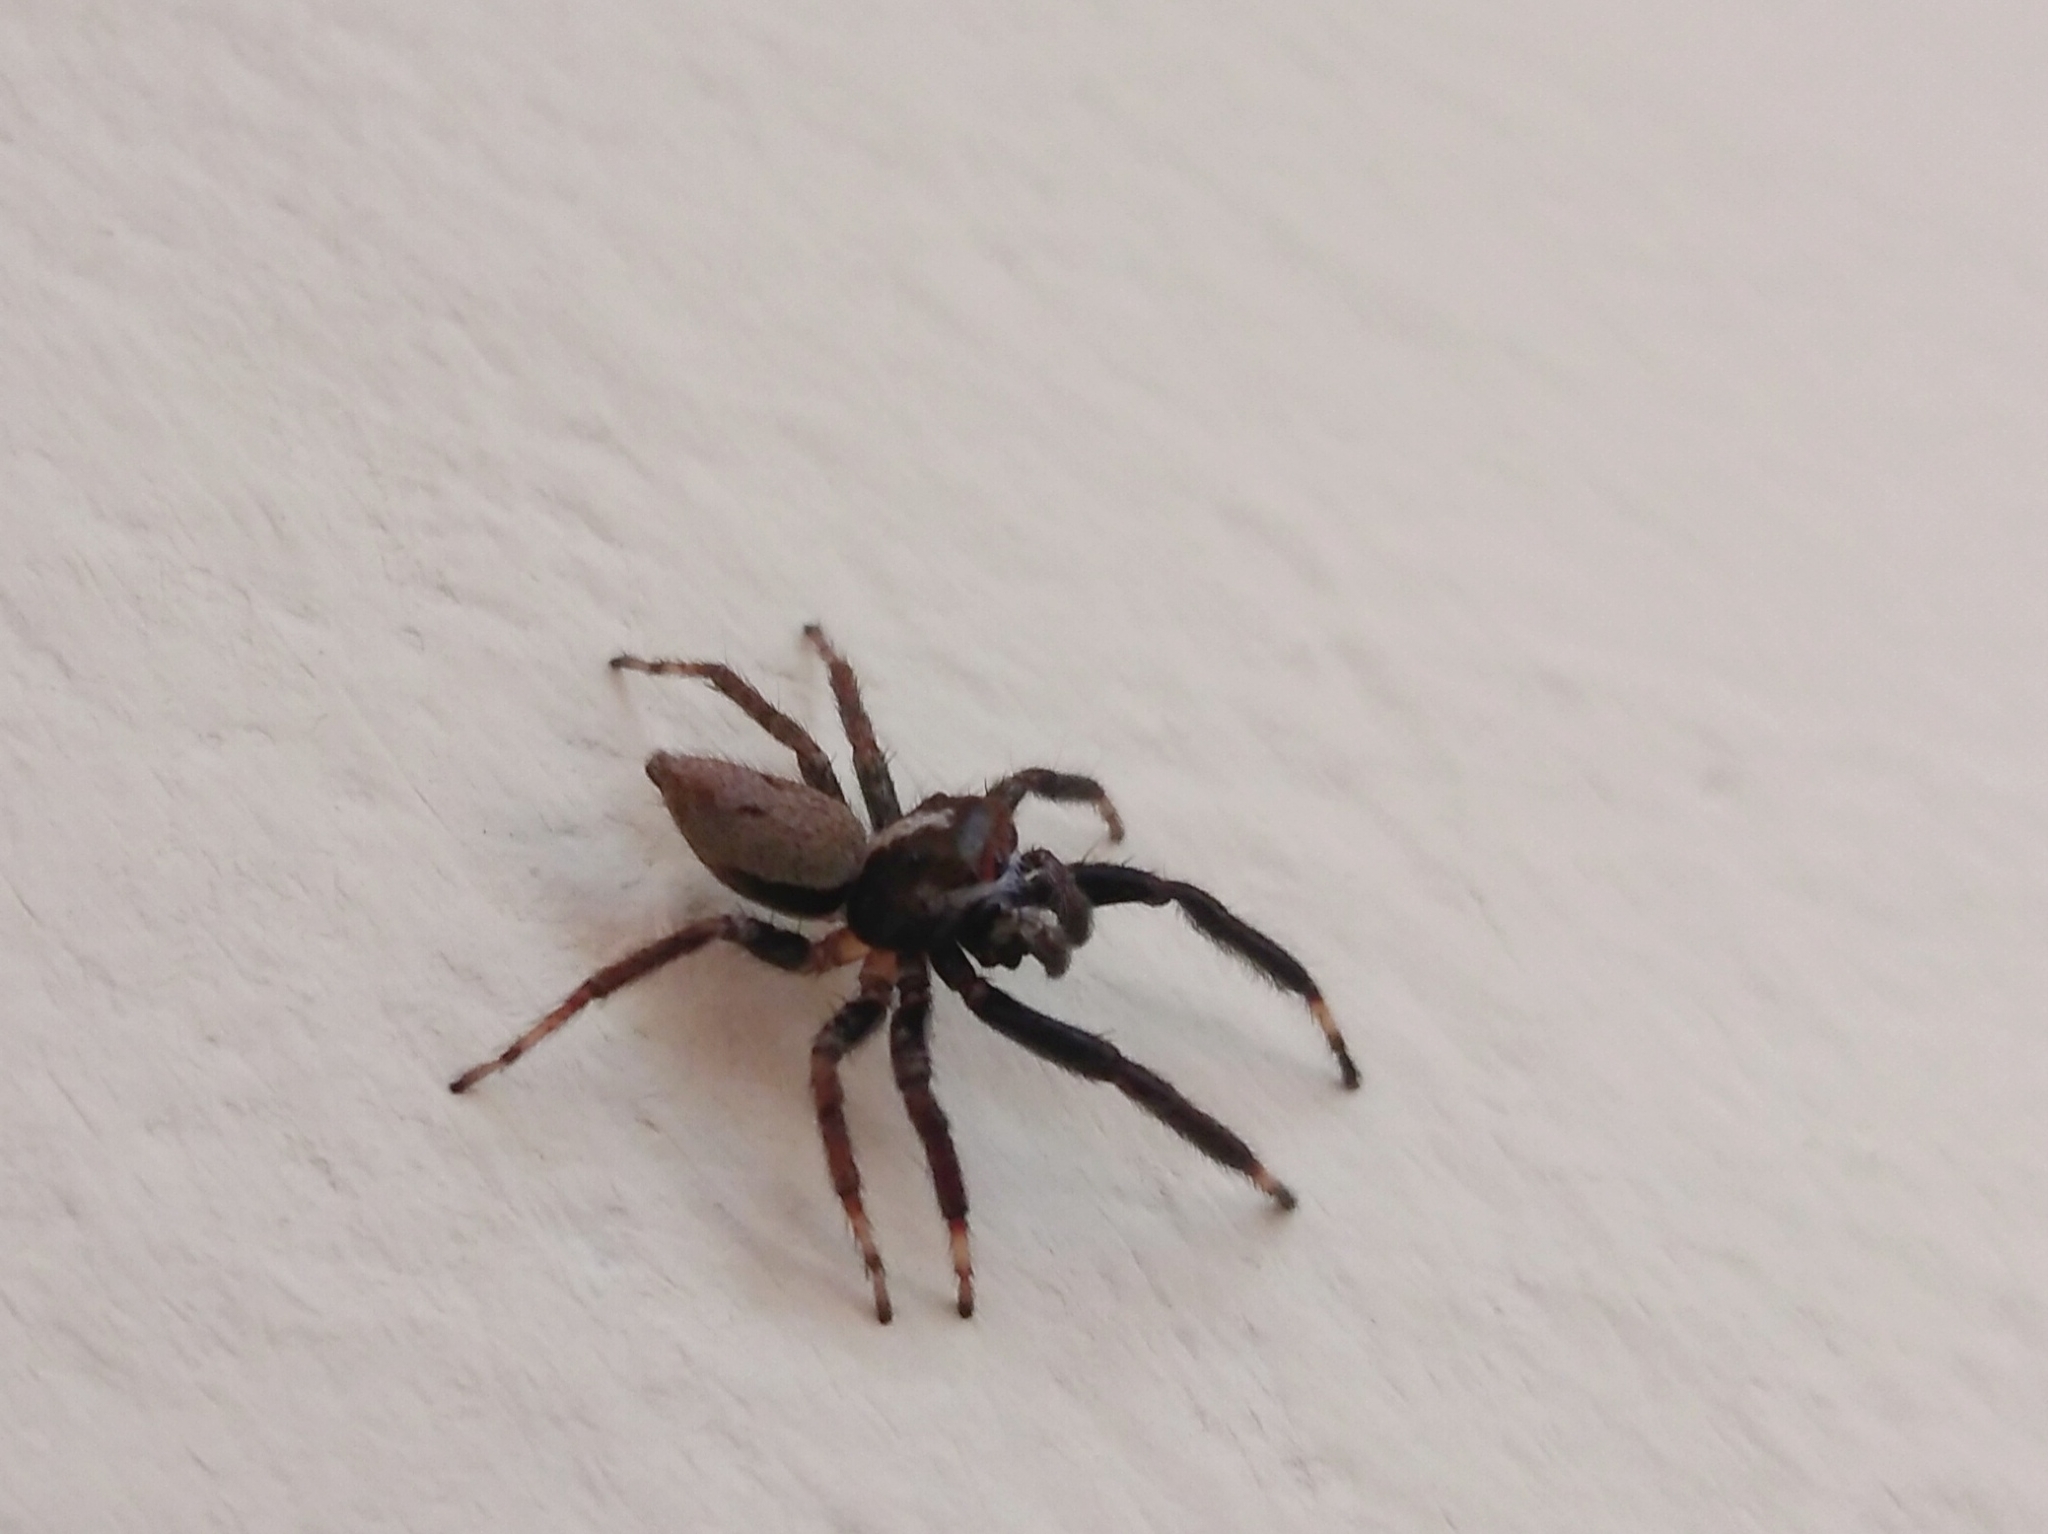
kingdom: Animalia
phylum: Arthropoda
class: Arachnida
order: Araneae
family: Salticidae
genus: Asaphobelis
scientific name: Asaphobelis physonychus
